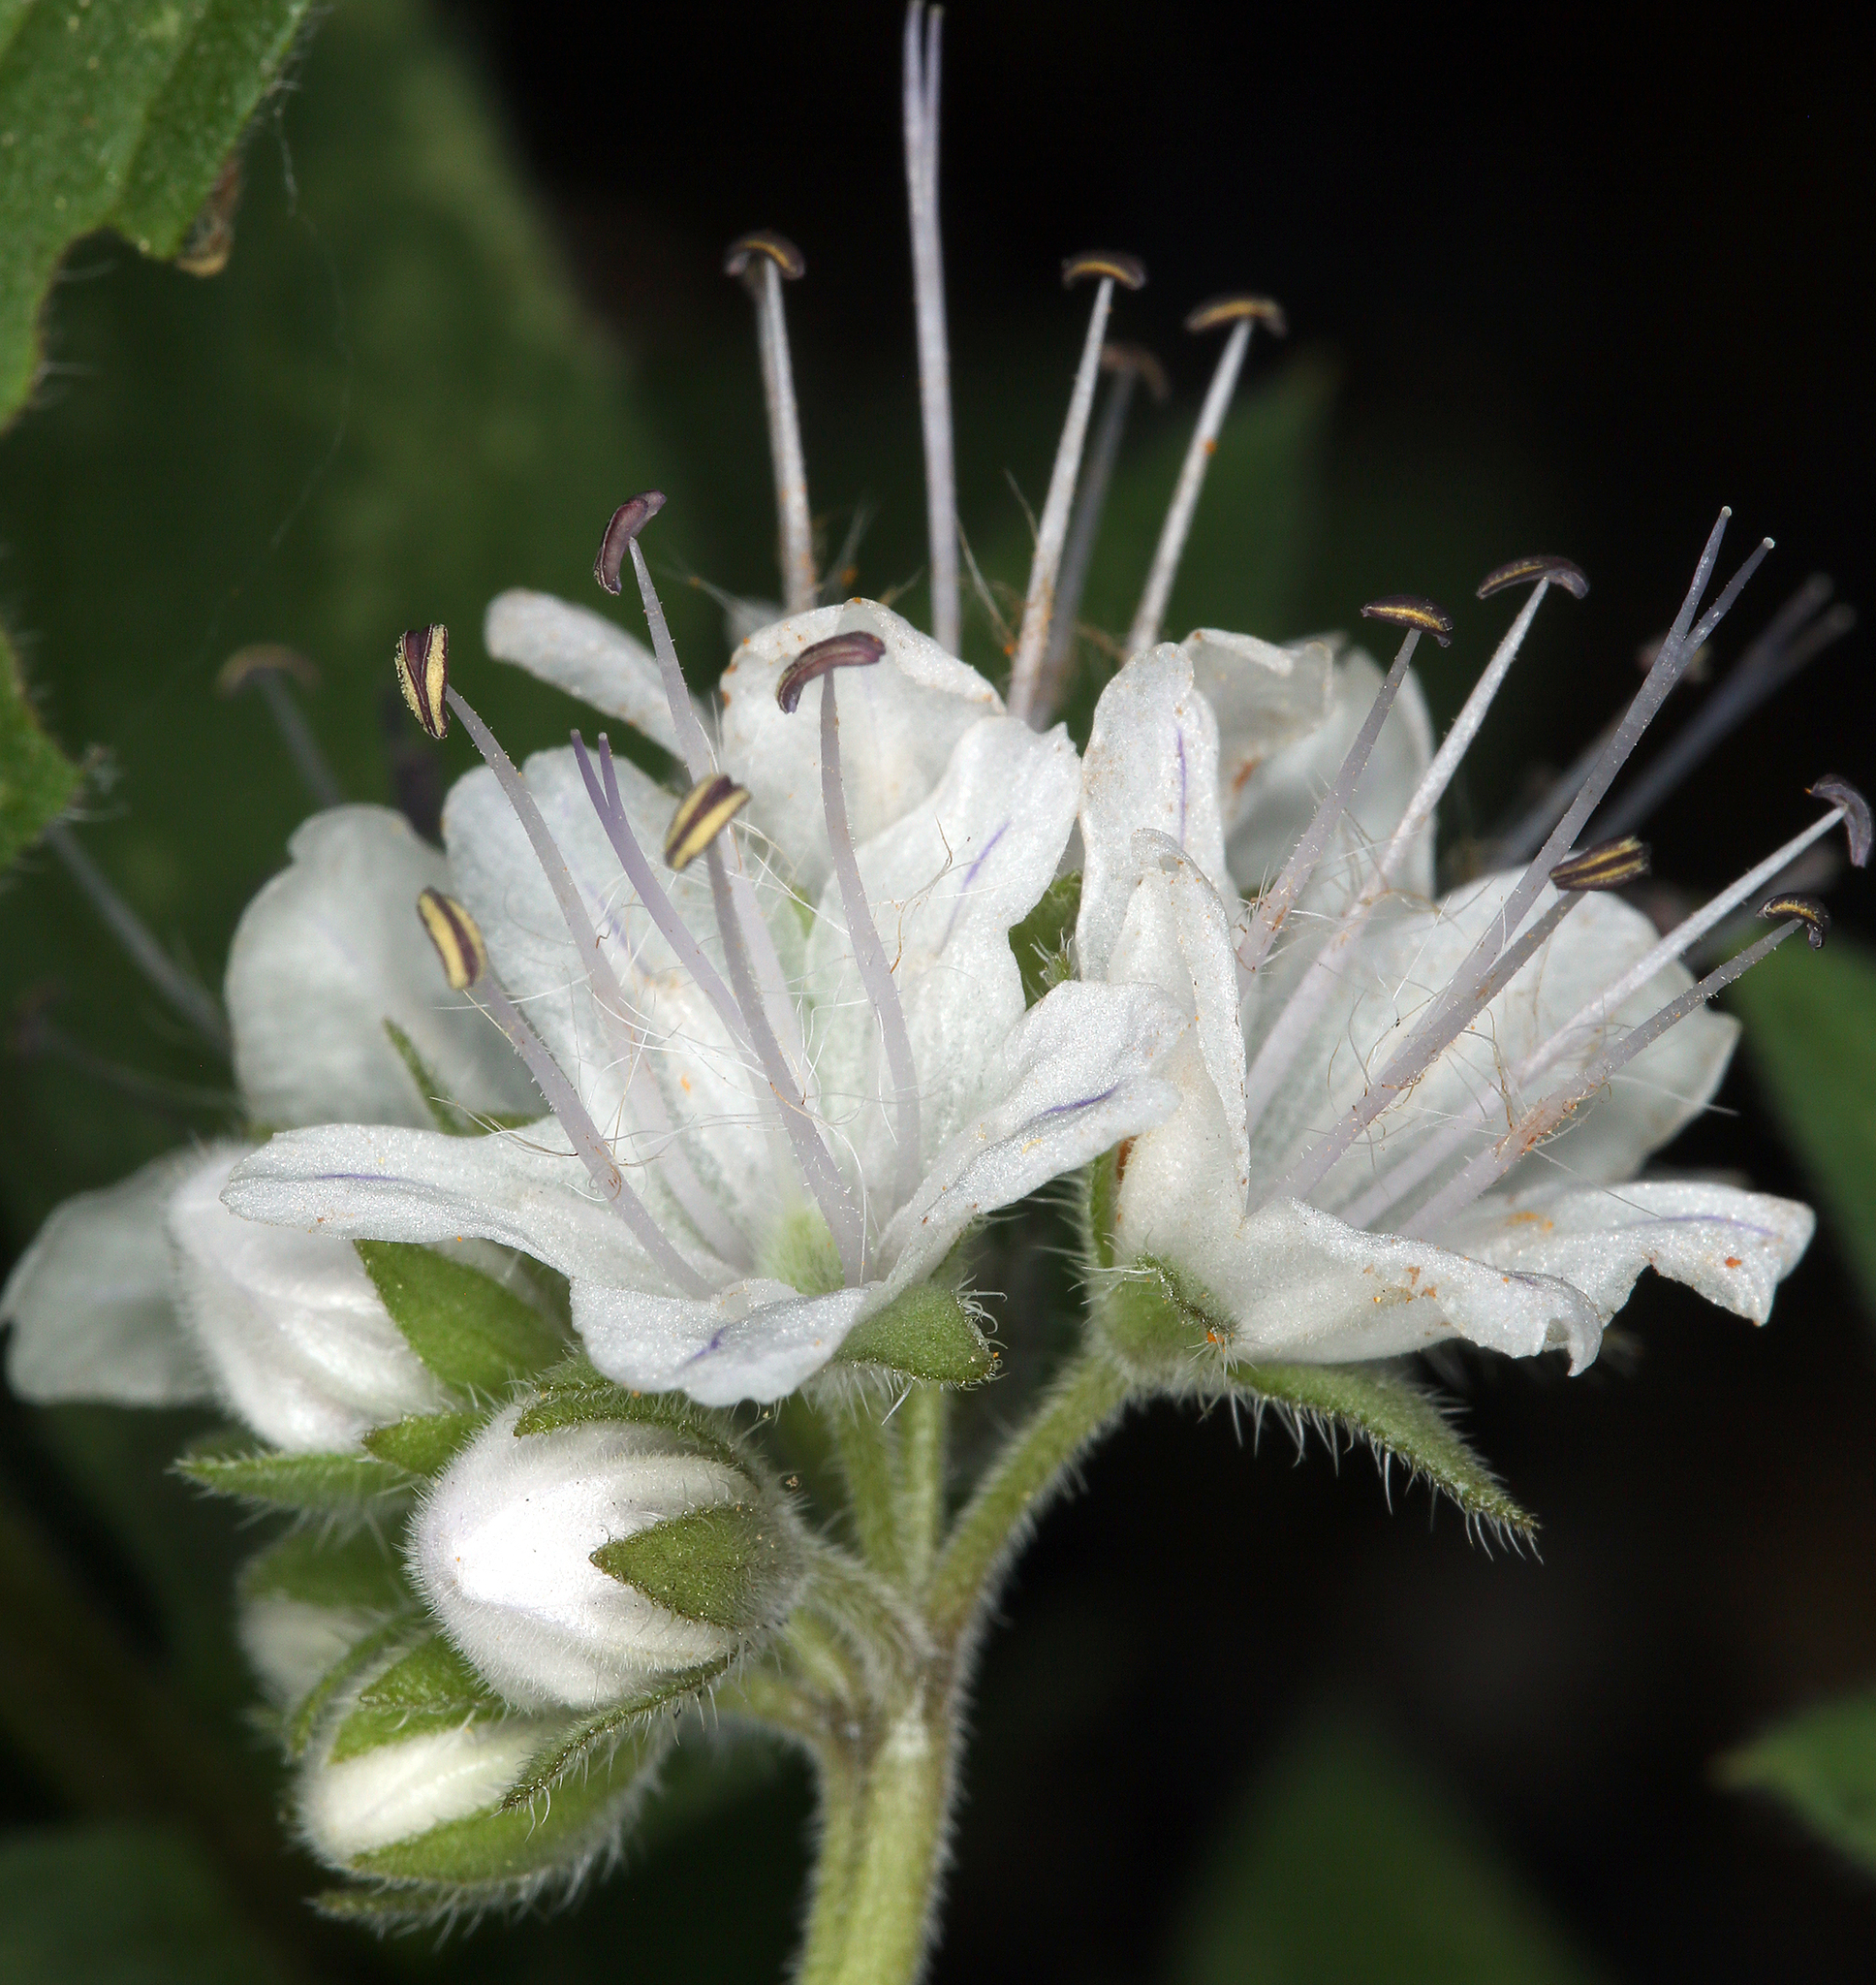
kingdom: Plantae
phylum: Tracheophyta
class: Magnoliopsida
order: Boraginales
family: Hydrophyllaceae
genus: Hydrophyllum
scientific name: Hydrophyllum occidentale
